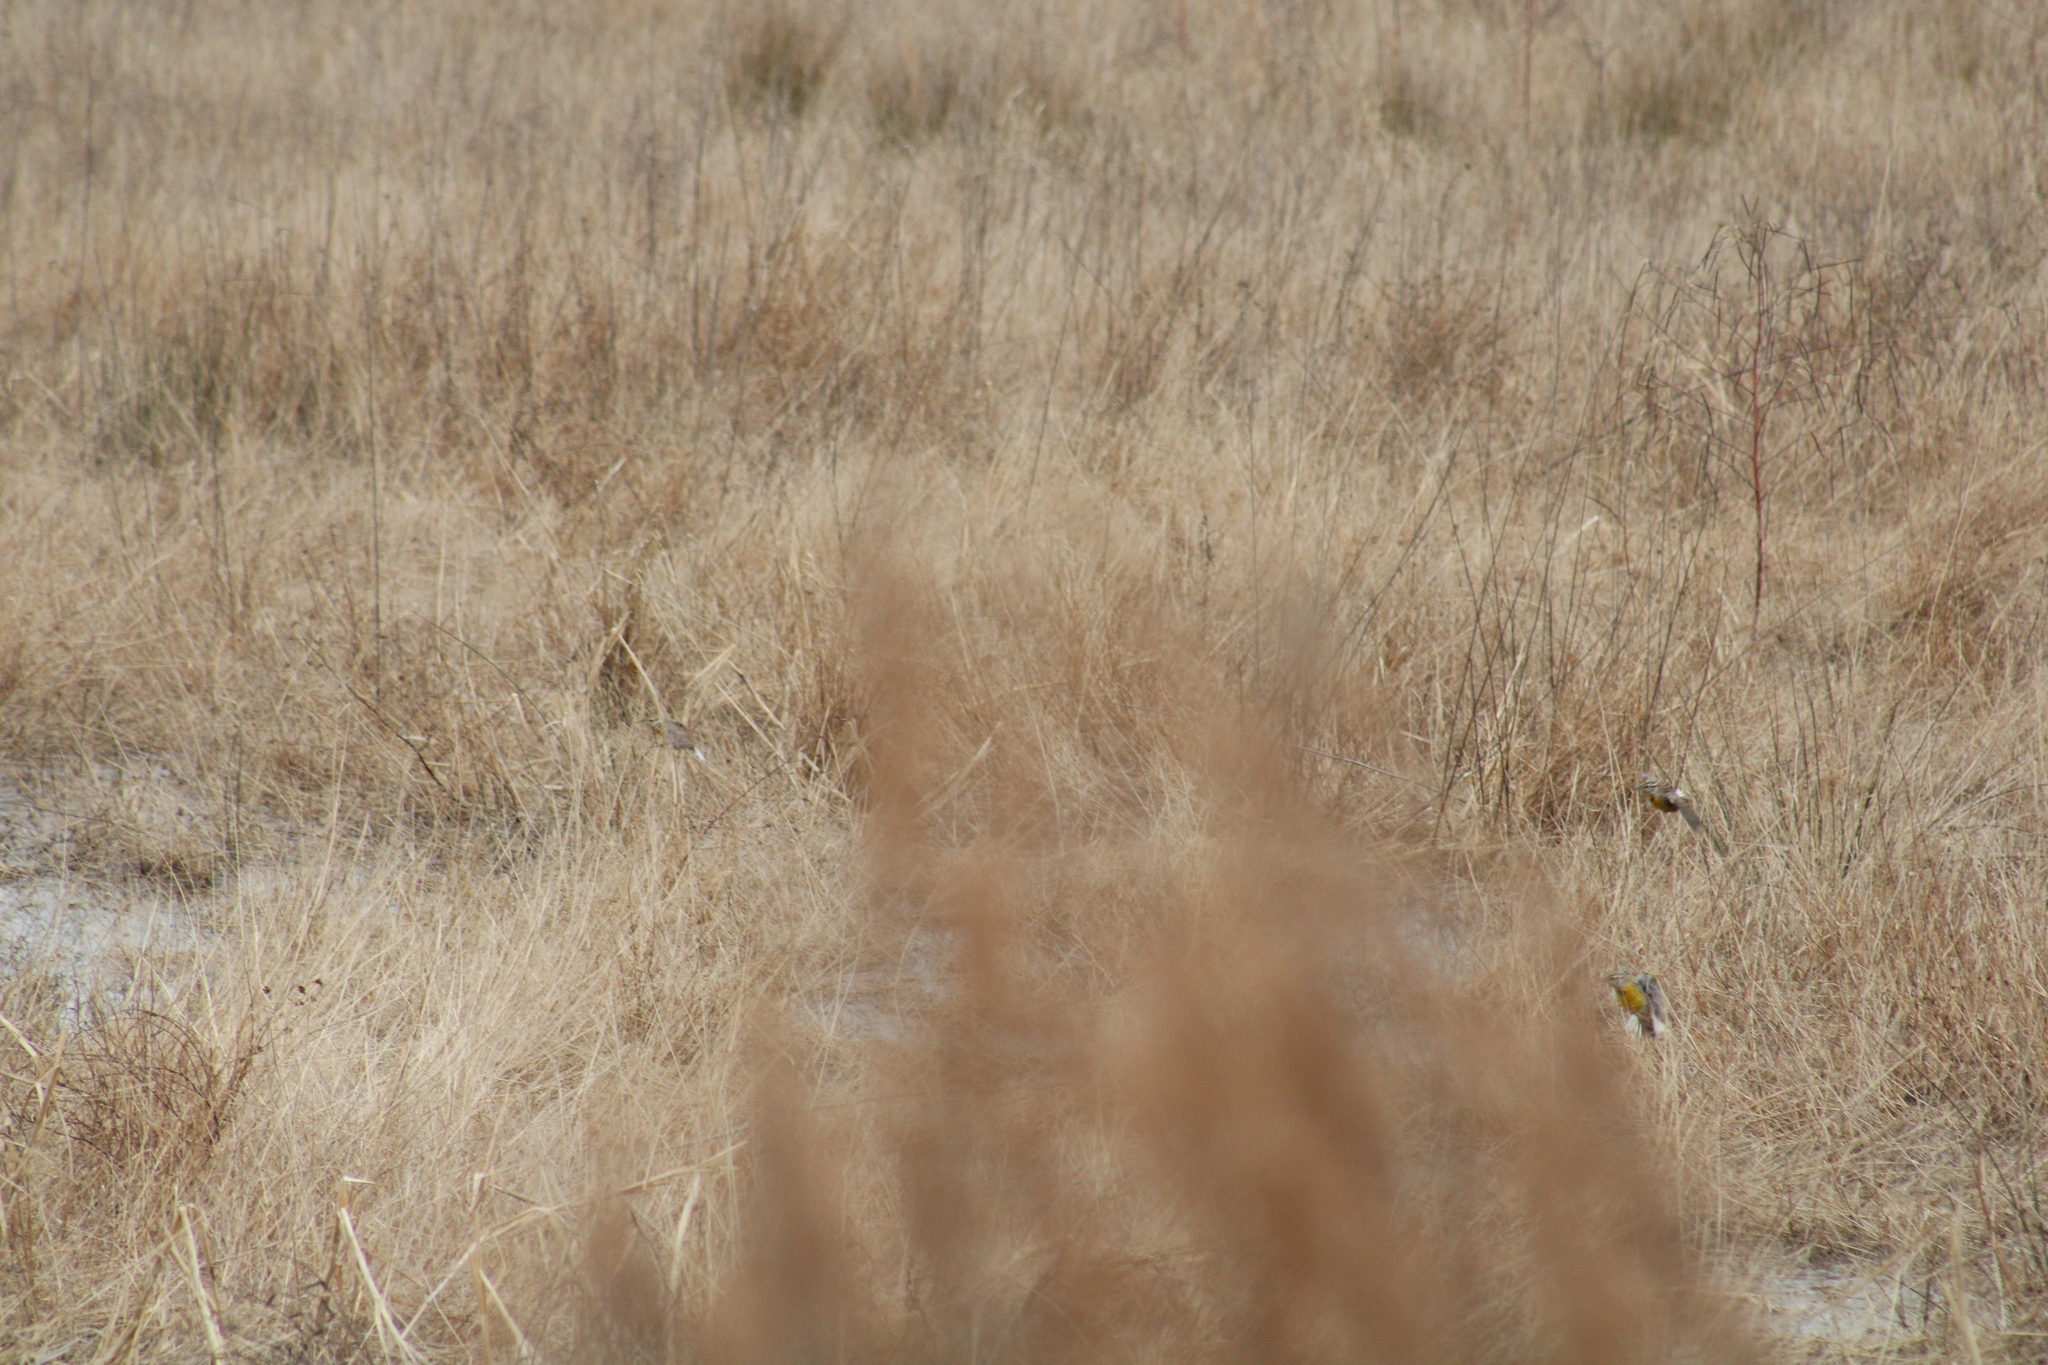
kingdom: Animalia
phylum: Chordata
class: Aves
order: Passeriformes
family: Icteridae
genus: Sturnella
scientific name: Sturnella magna
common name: Eastern meadowlark
